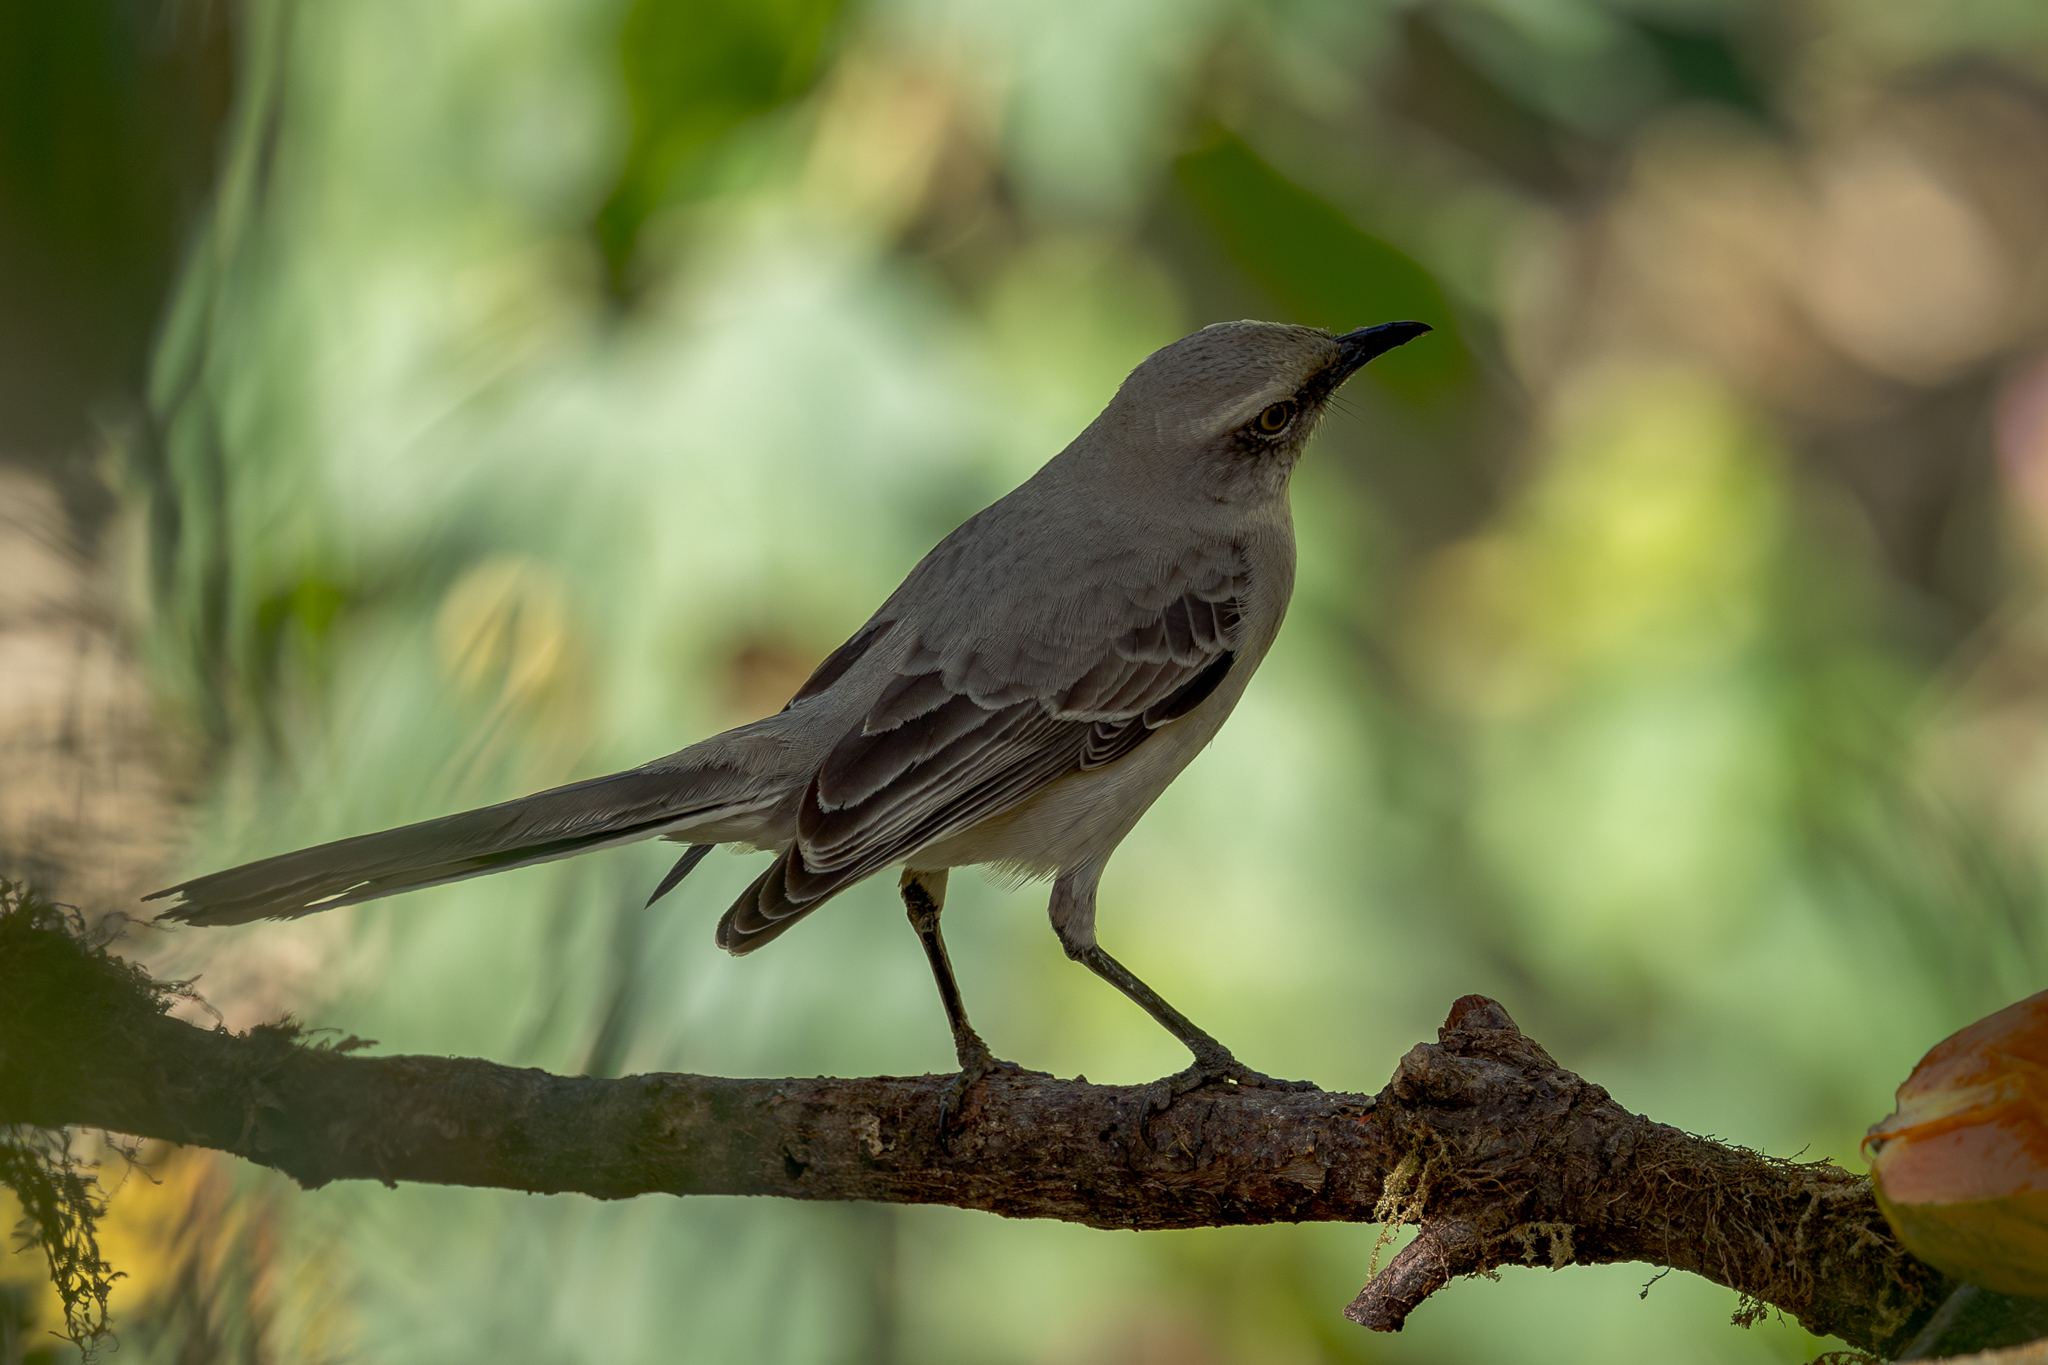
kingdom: Animalia
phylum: Chordata
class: Aves
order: Passeriformes
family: Mimidae
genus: Mimus
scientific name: Mimus gilvus
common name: Tropical mockingbird
